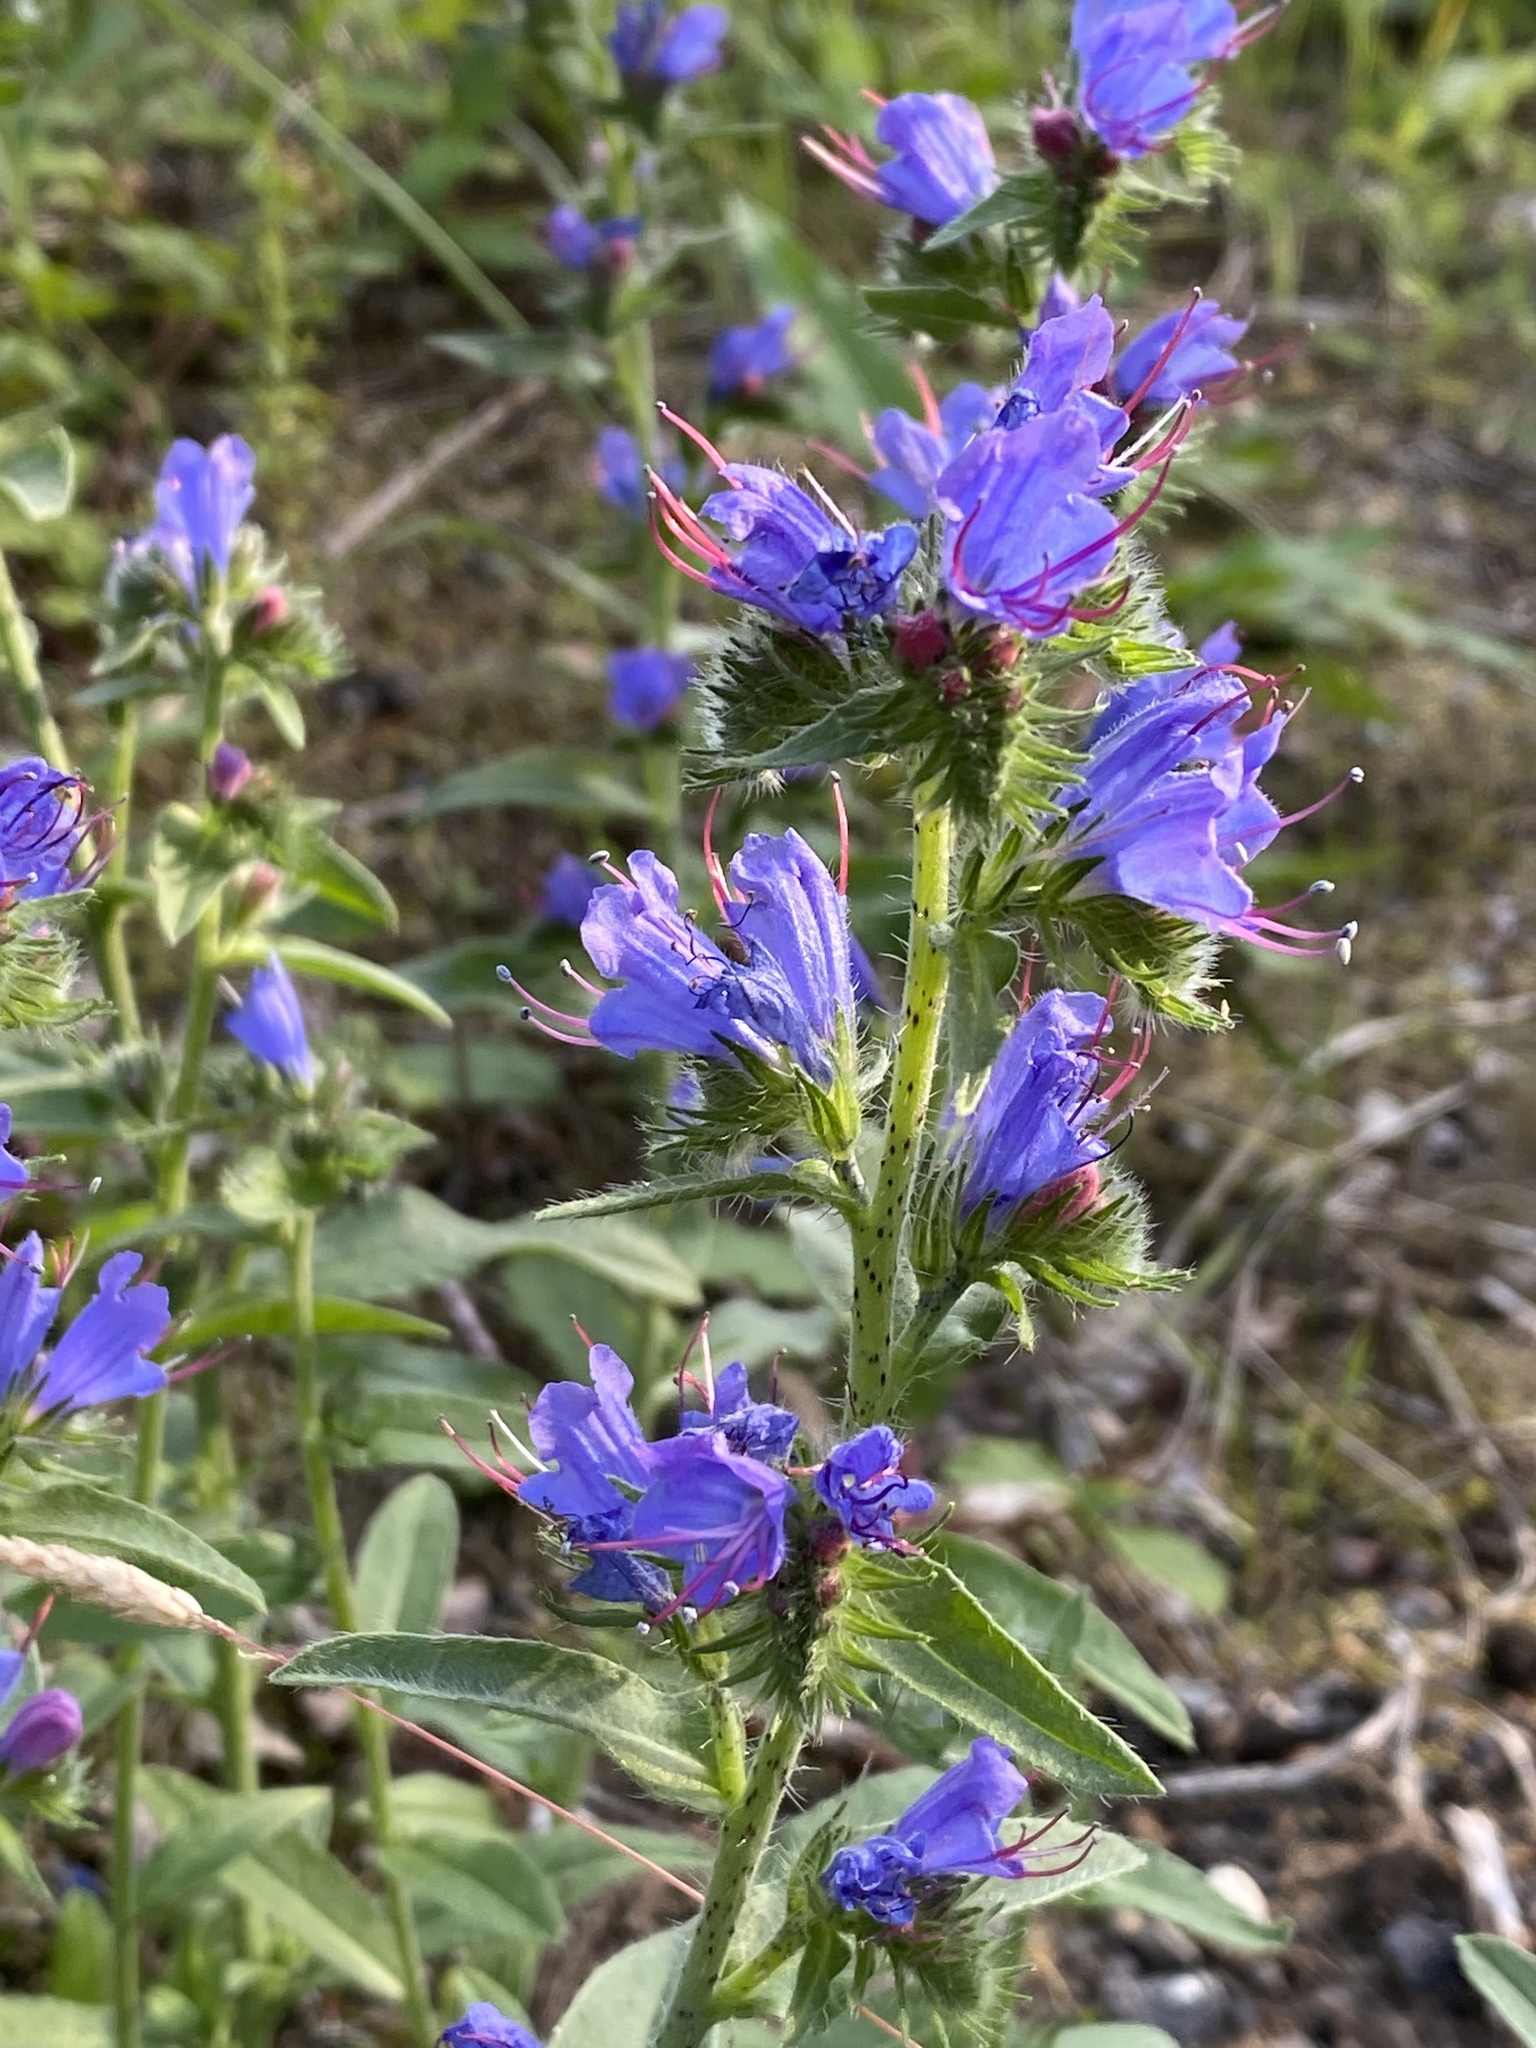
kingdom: Plantae
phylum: Tracheophyta
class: Magnoliopsida
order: Boraginales
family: Boraginaceae
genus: Echium
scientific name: Echium vulgare
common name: Common viper's bugloss
